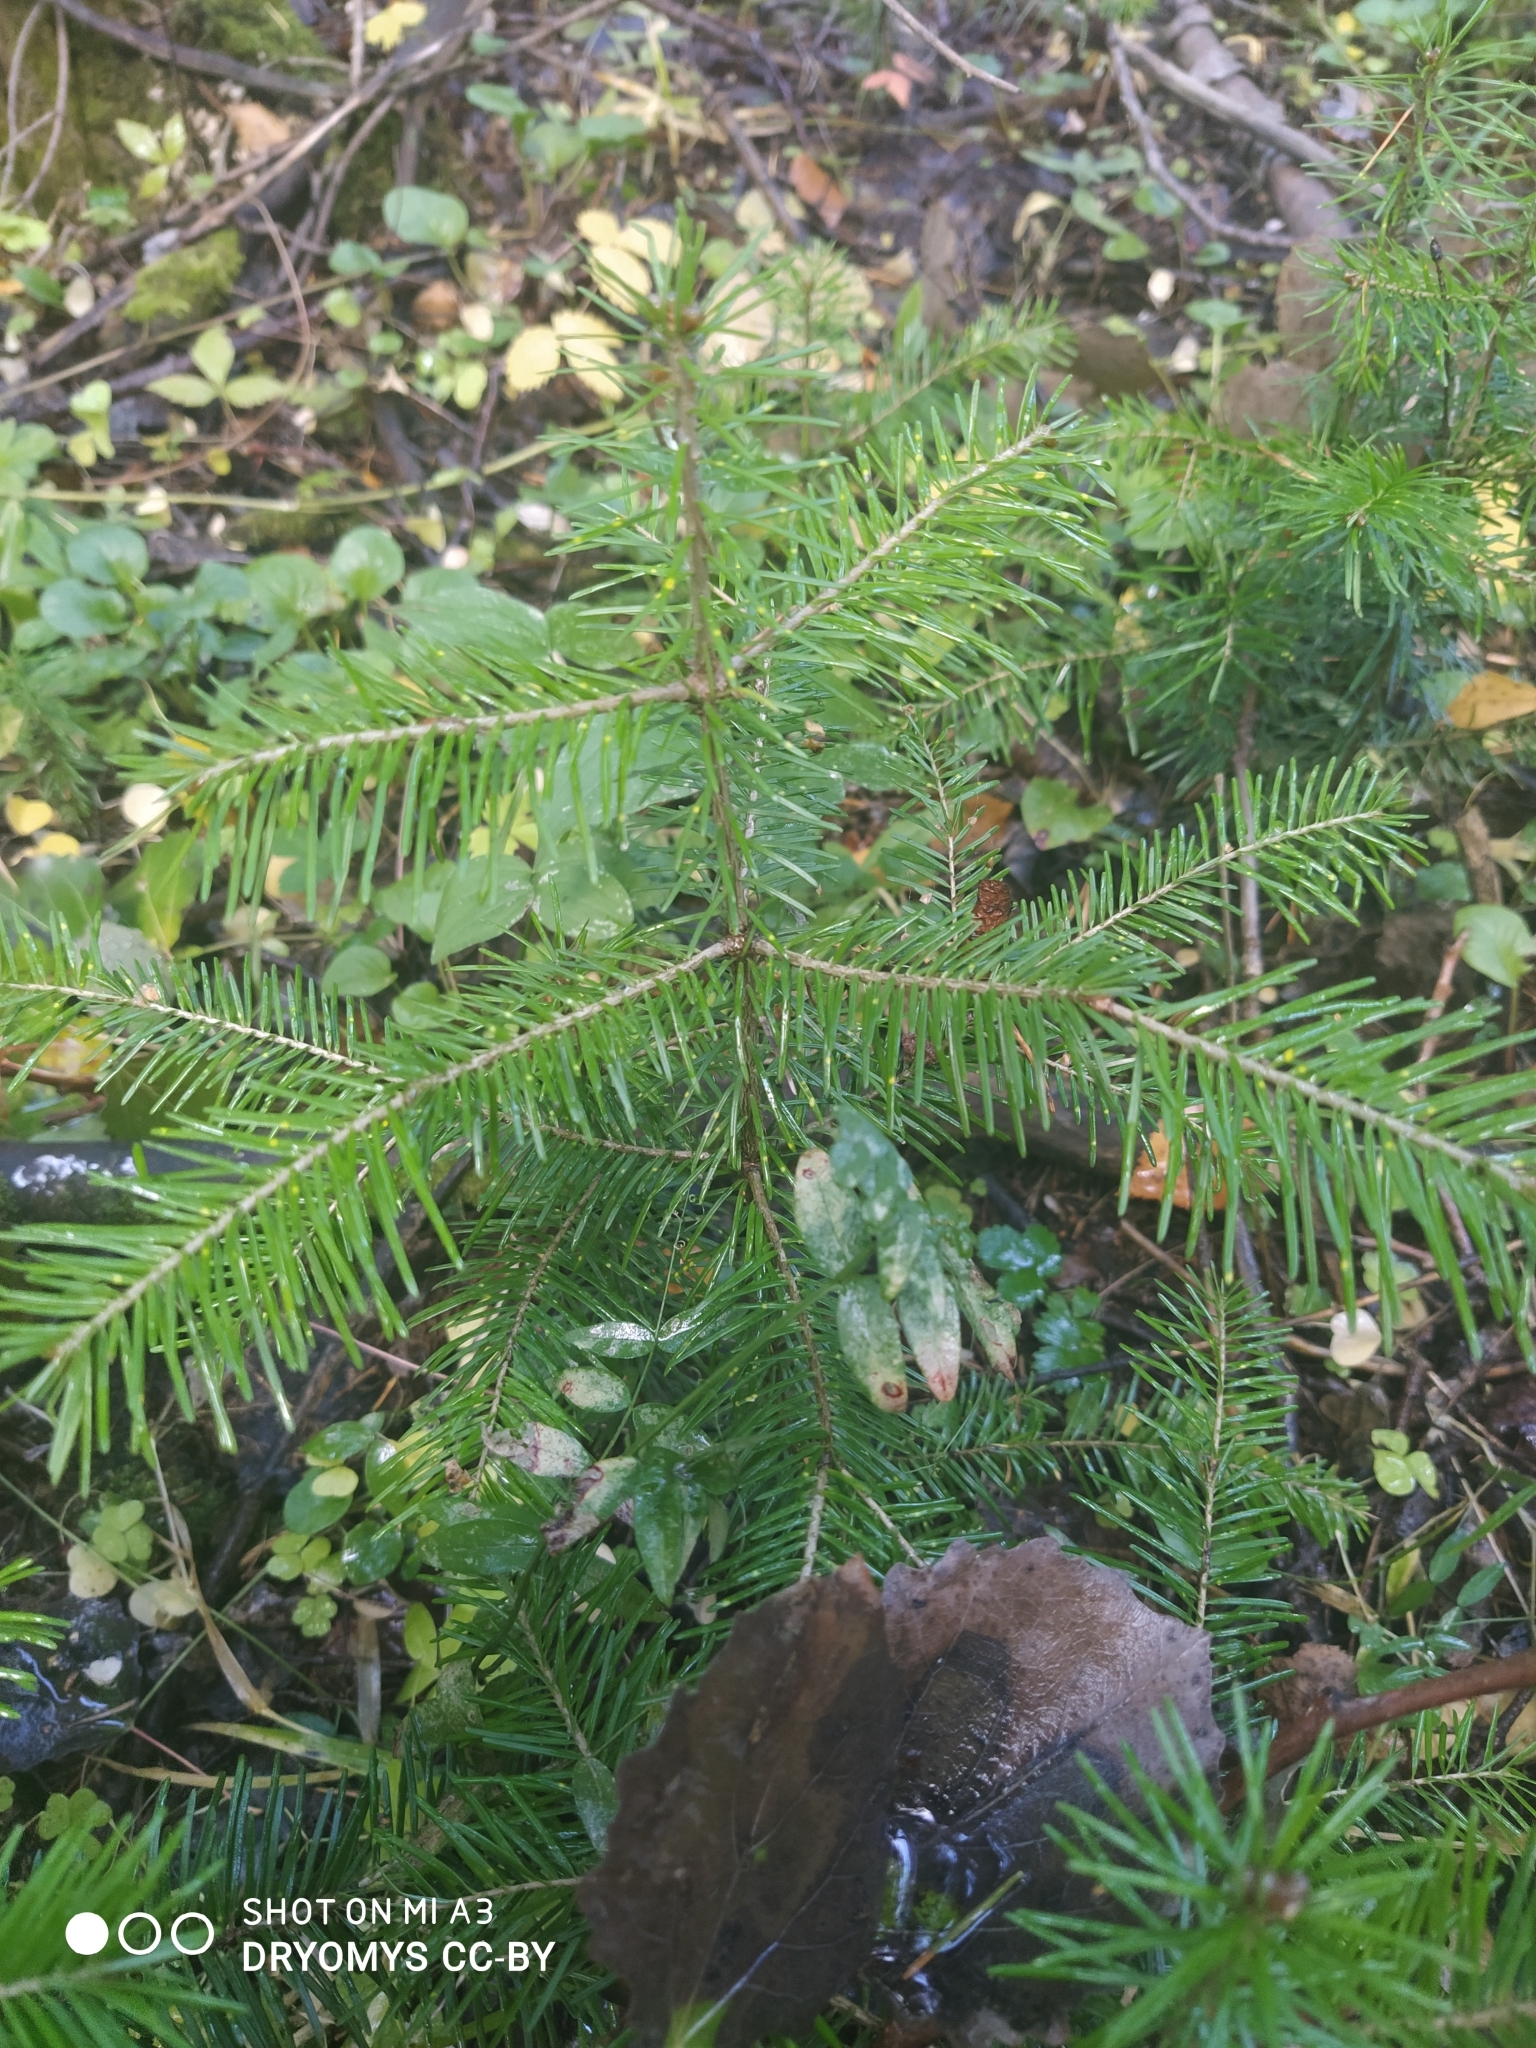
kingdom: Plantae
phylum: Tracheophyta
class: Pinopsida
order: Pinales
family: Pinaceae
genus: Abies
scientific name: Abies sibirica
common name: Siberian fir
